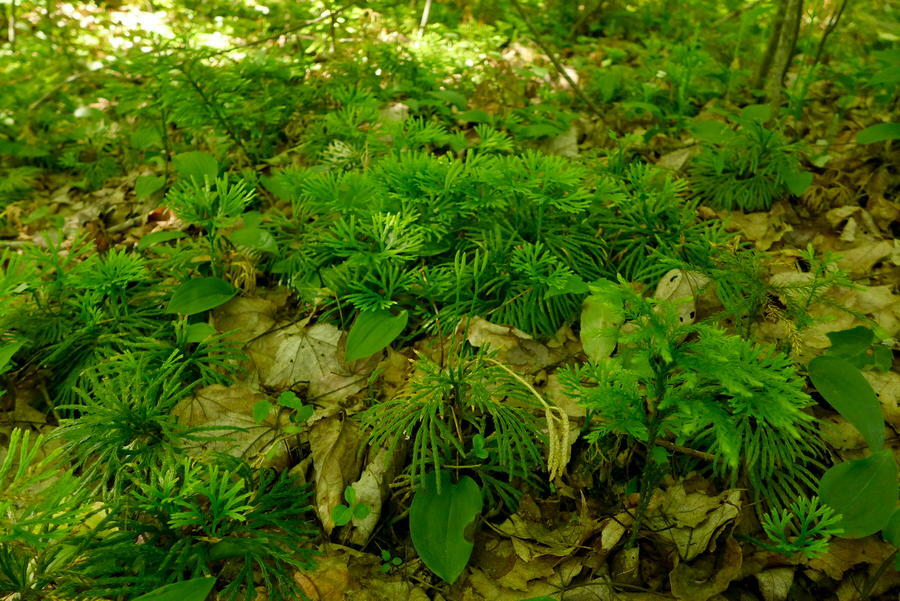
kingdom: Plantae
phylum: Tracheophyta
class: Lycopodiopsida
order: Lycopodiales
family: Lycopodiaceae
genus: Diphasiastrum
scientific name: Diphasiastrum digitatum
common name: Southern running-pine
